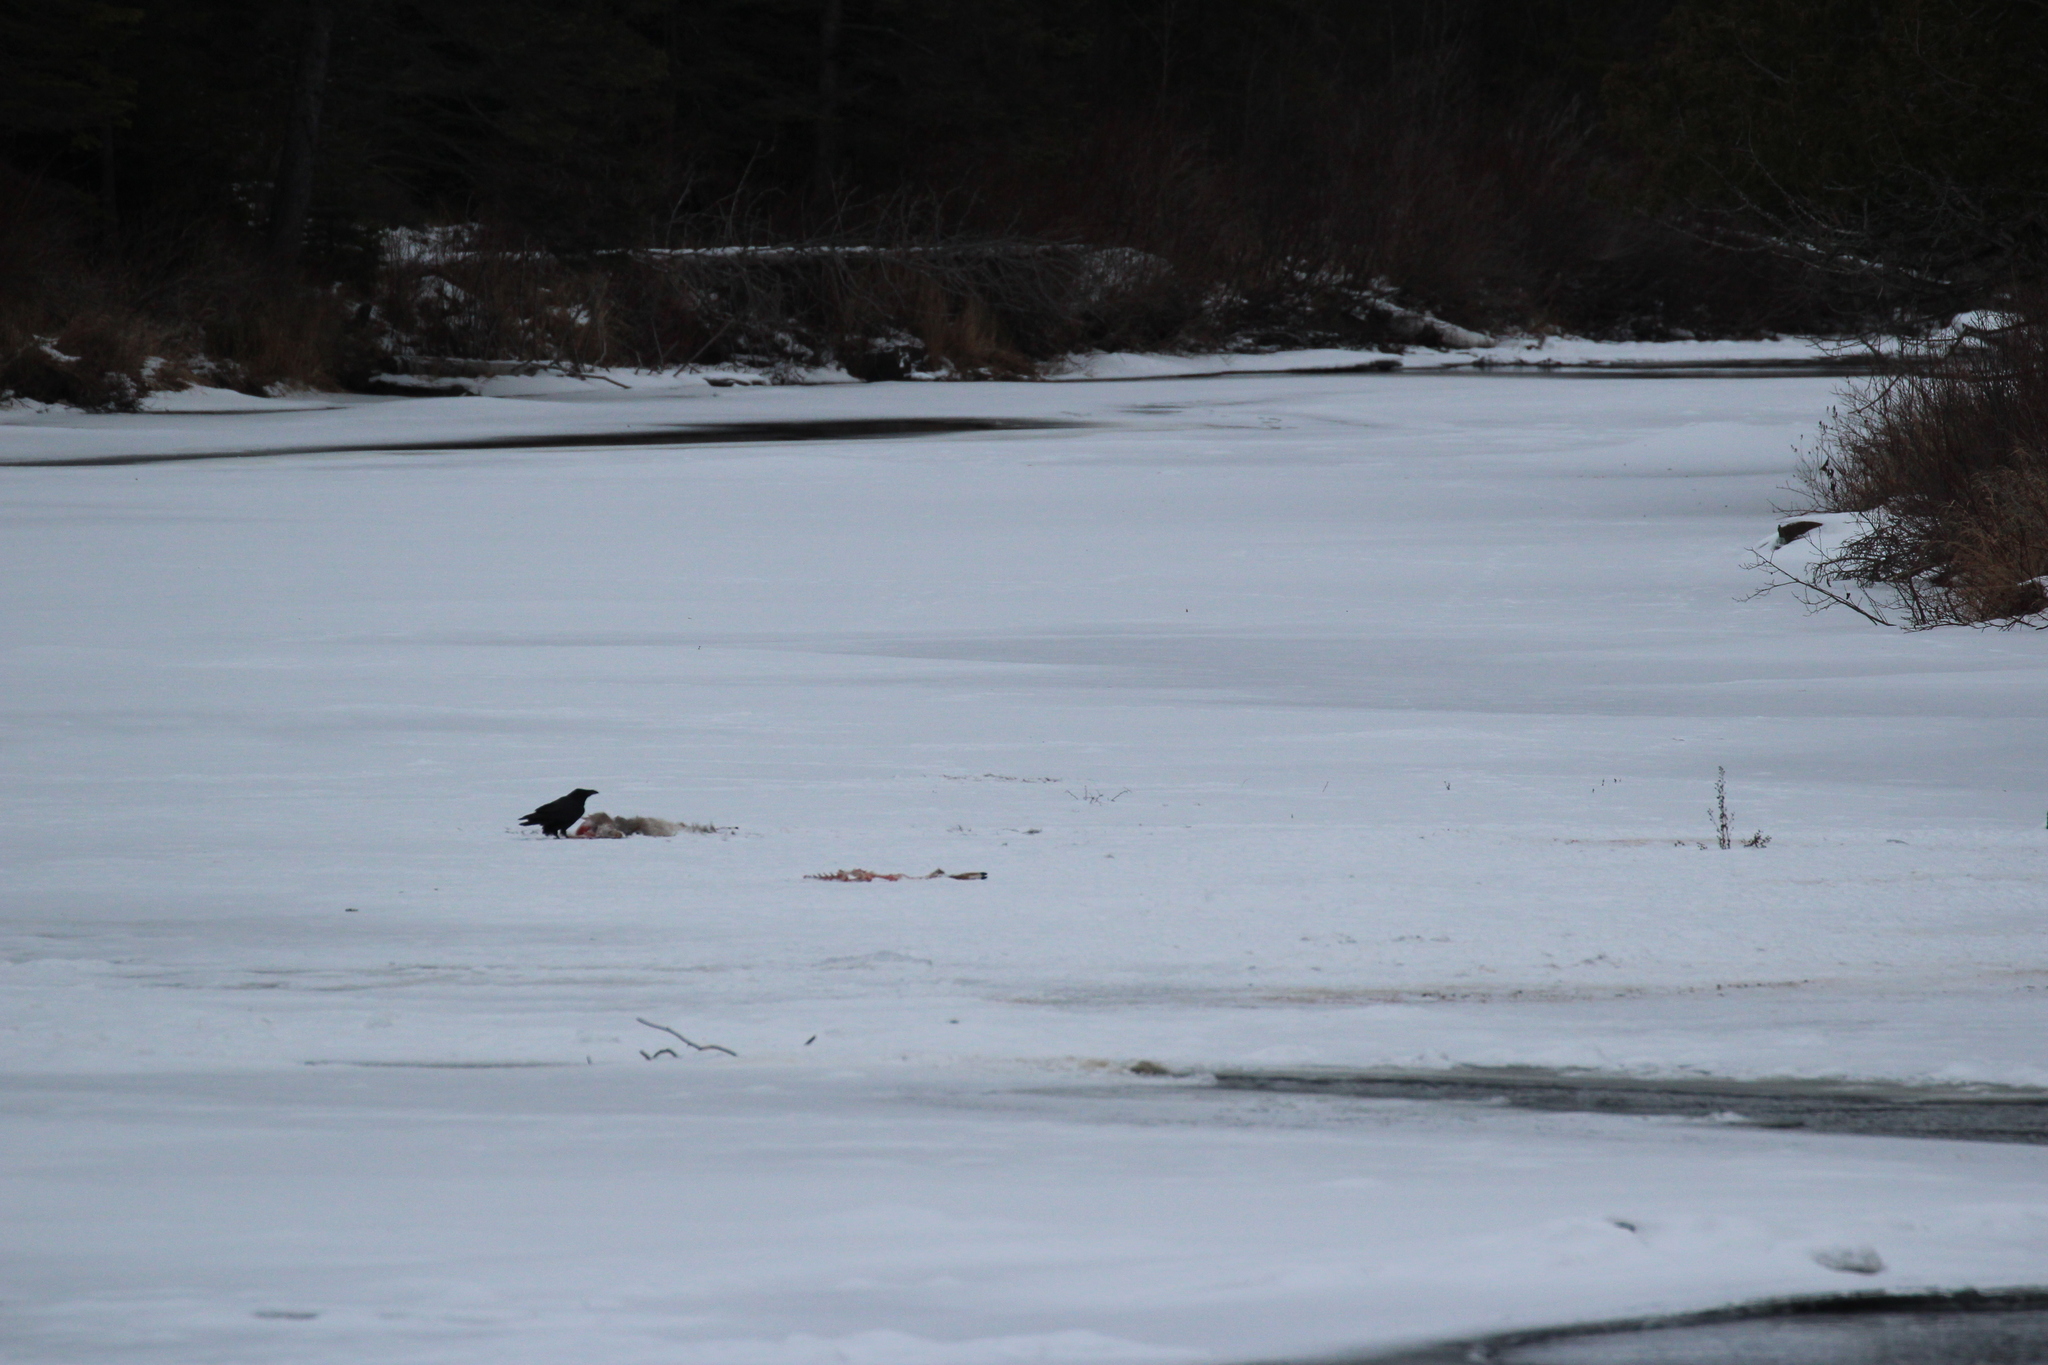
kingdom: Animalia
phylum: Chordata
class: Aves
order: Passeriformes
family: Corvidae
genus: Corvus
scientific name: Corvus corax
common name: Common raven
